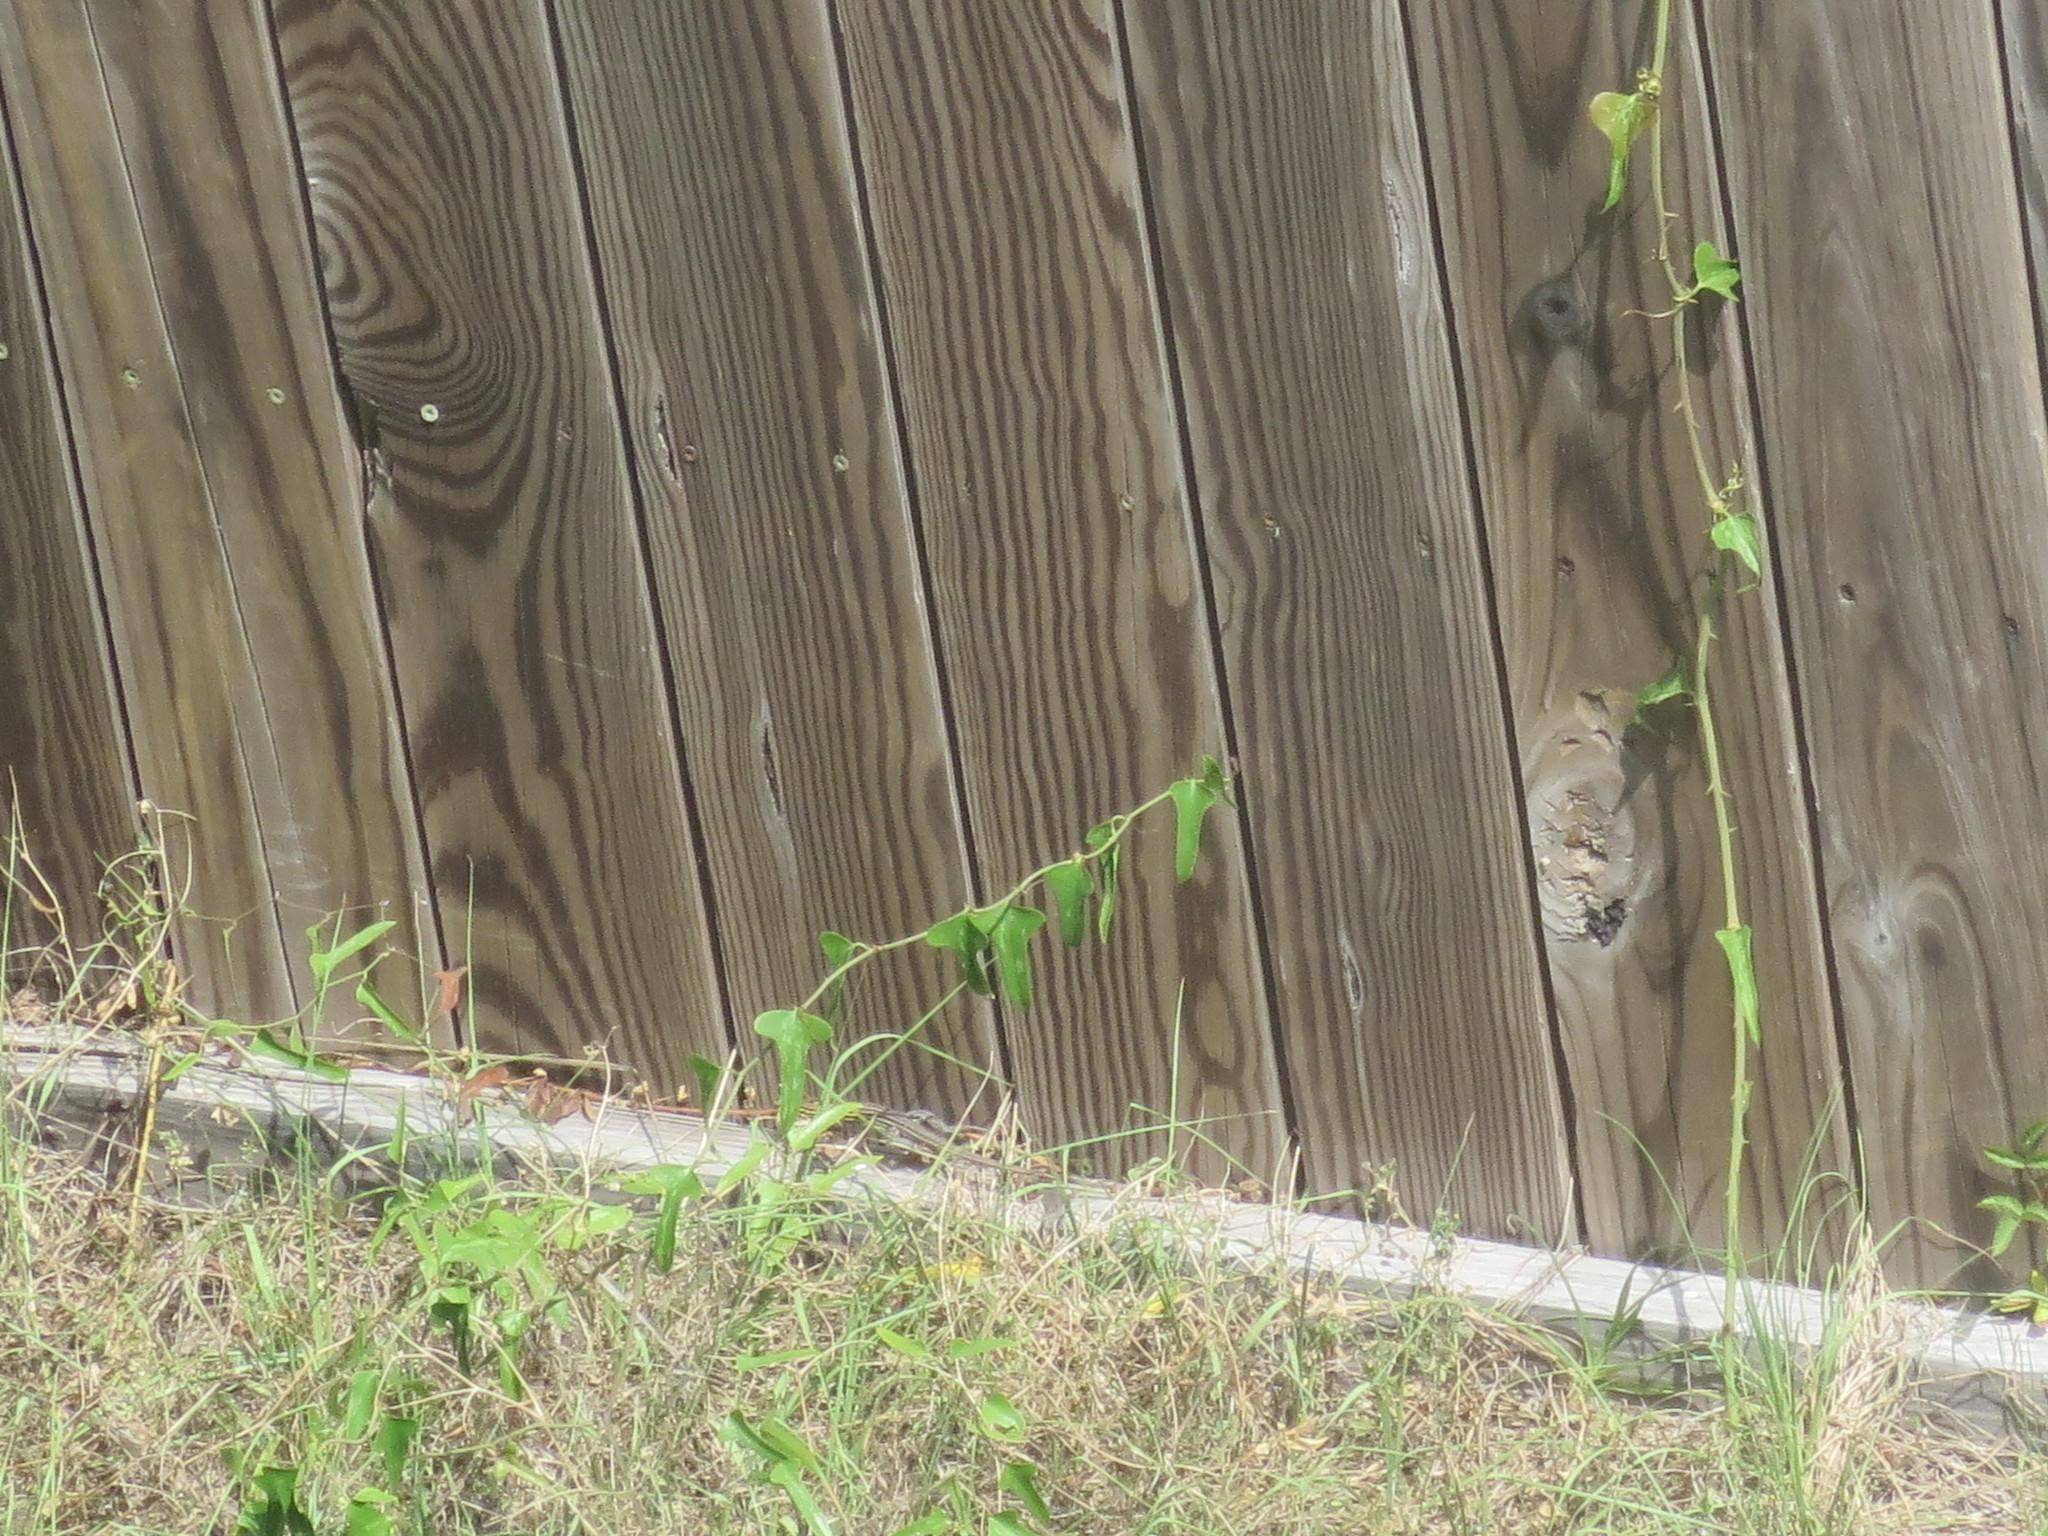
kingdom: Animalia
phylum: Chordata
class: Squamata
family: Teiidae
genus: Aspidoscelis
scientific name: Aspidoscelis sexlineatus
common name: Six-lined racerunner
